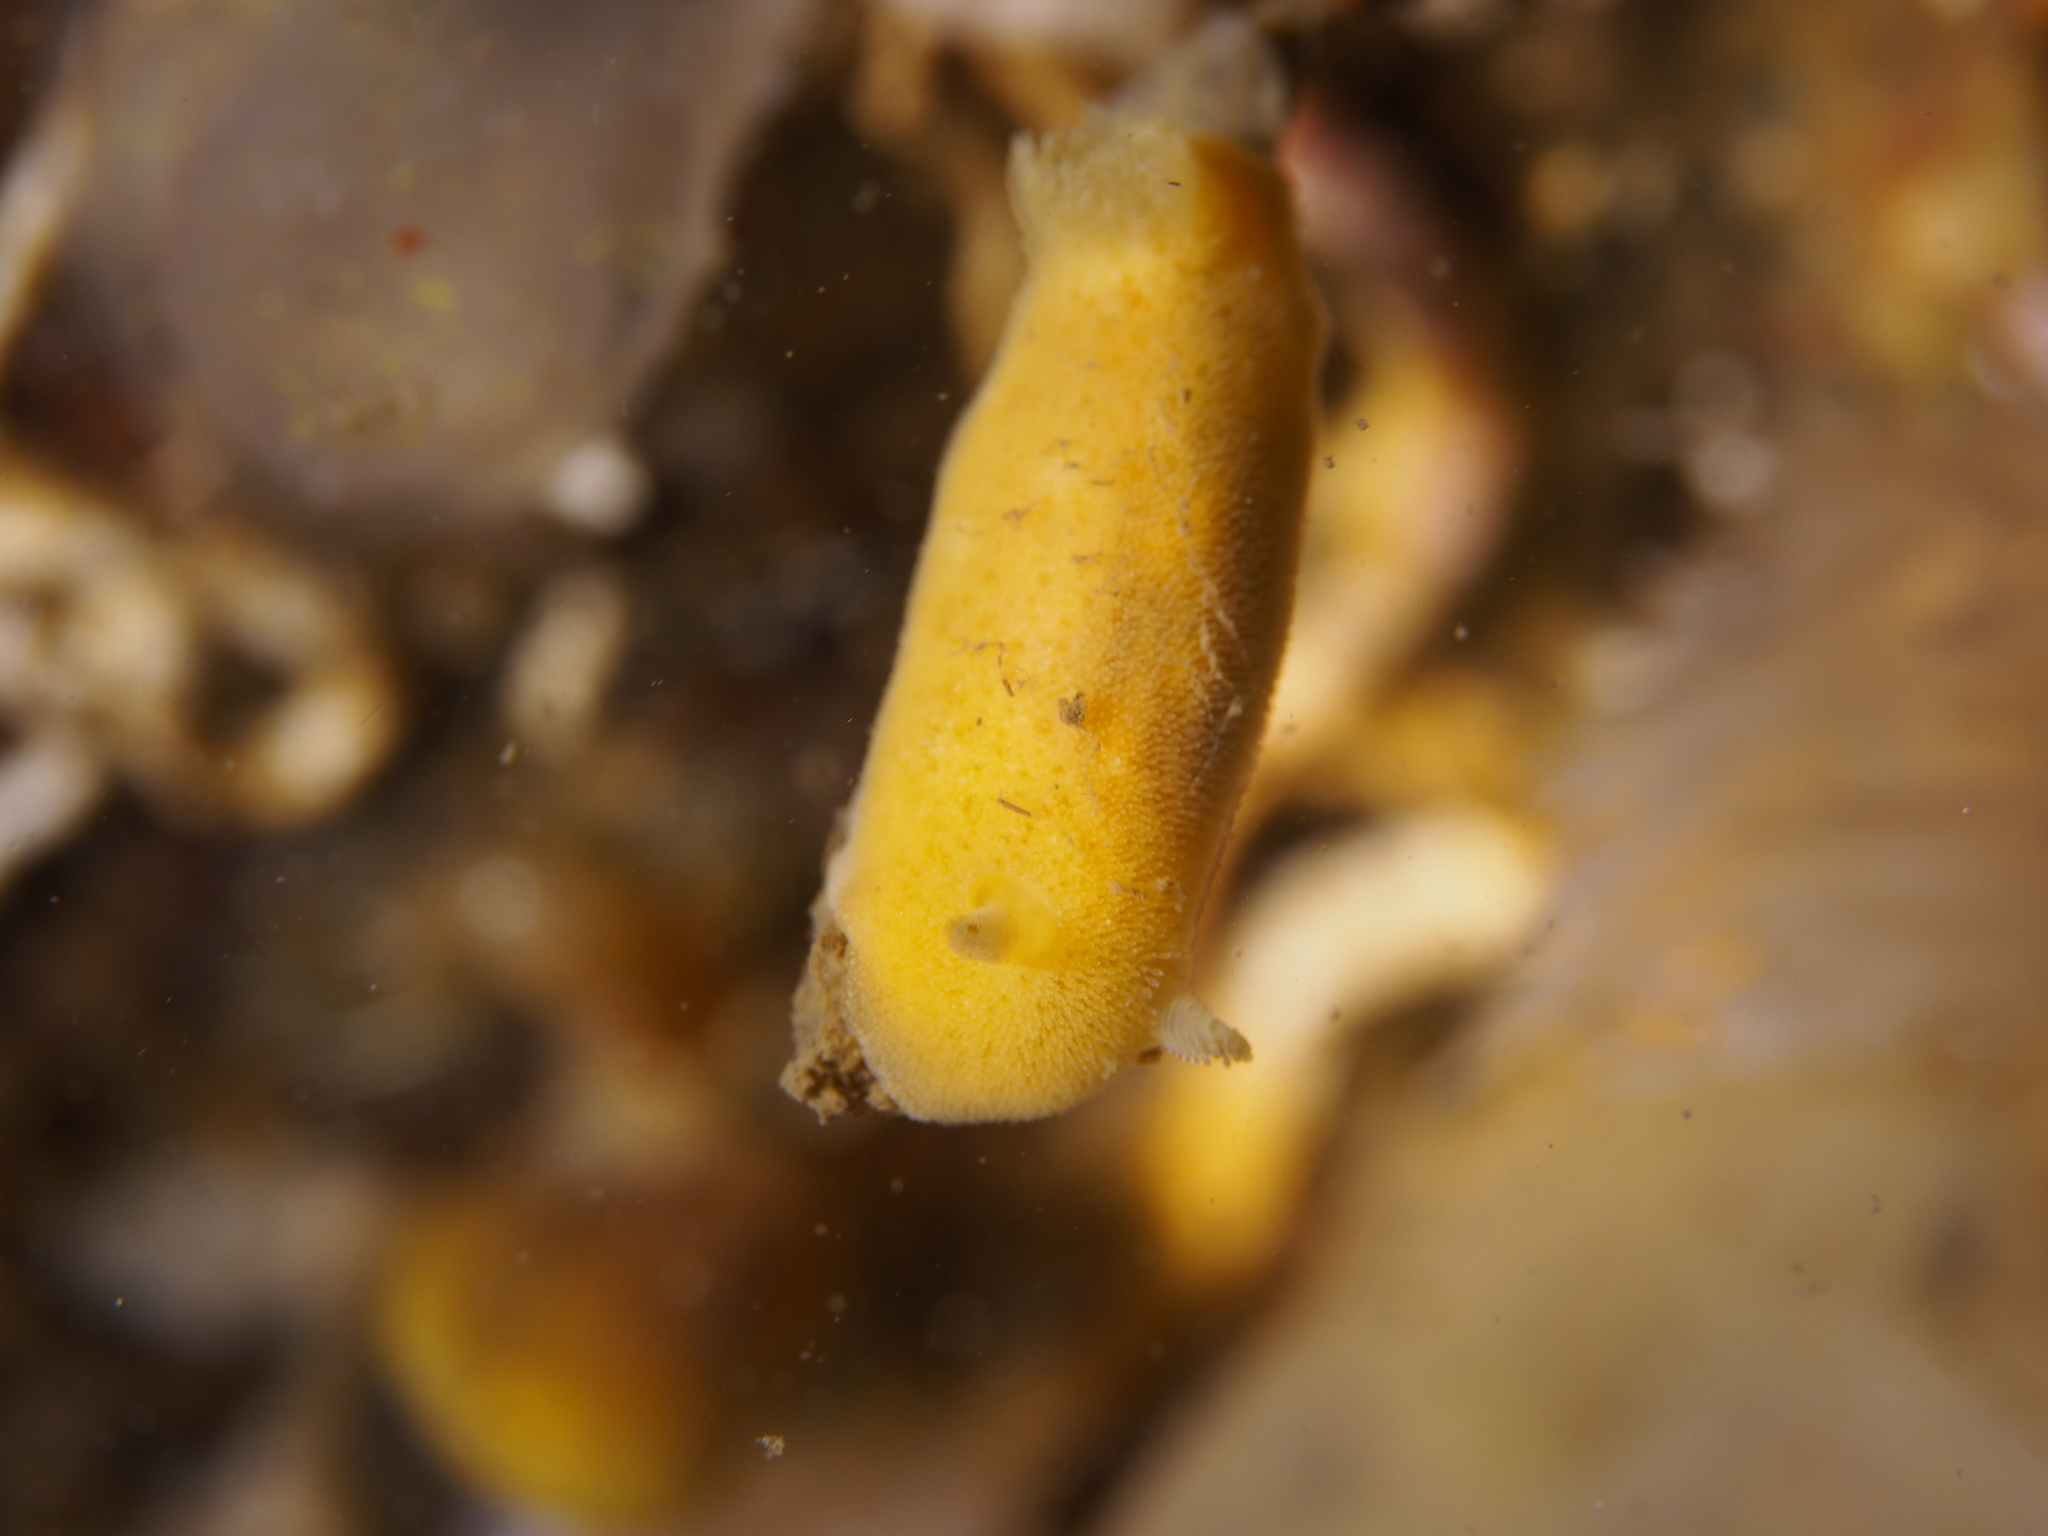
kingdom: Animalia
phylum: Mollusca
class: Gastropoda
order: Nudibranchia
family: Discodorididae
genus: Jorunna
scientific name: Jorunna tomentosa
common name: Grey sea slug
